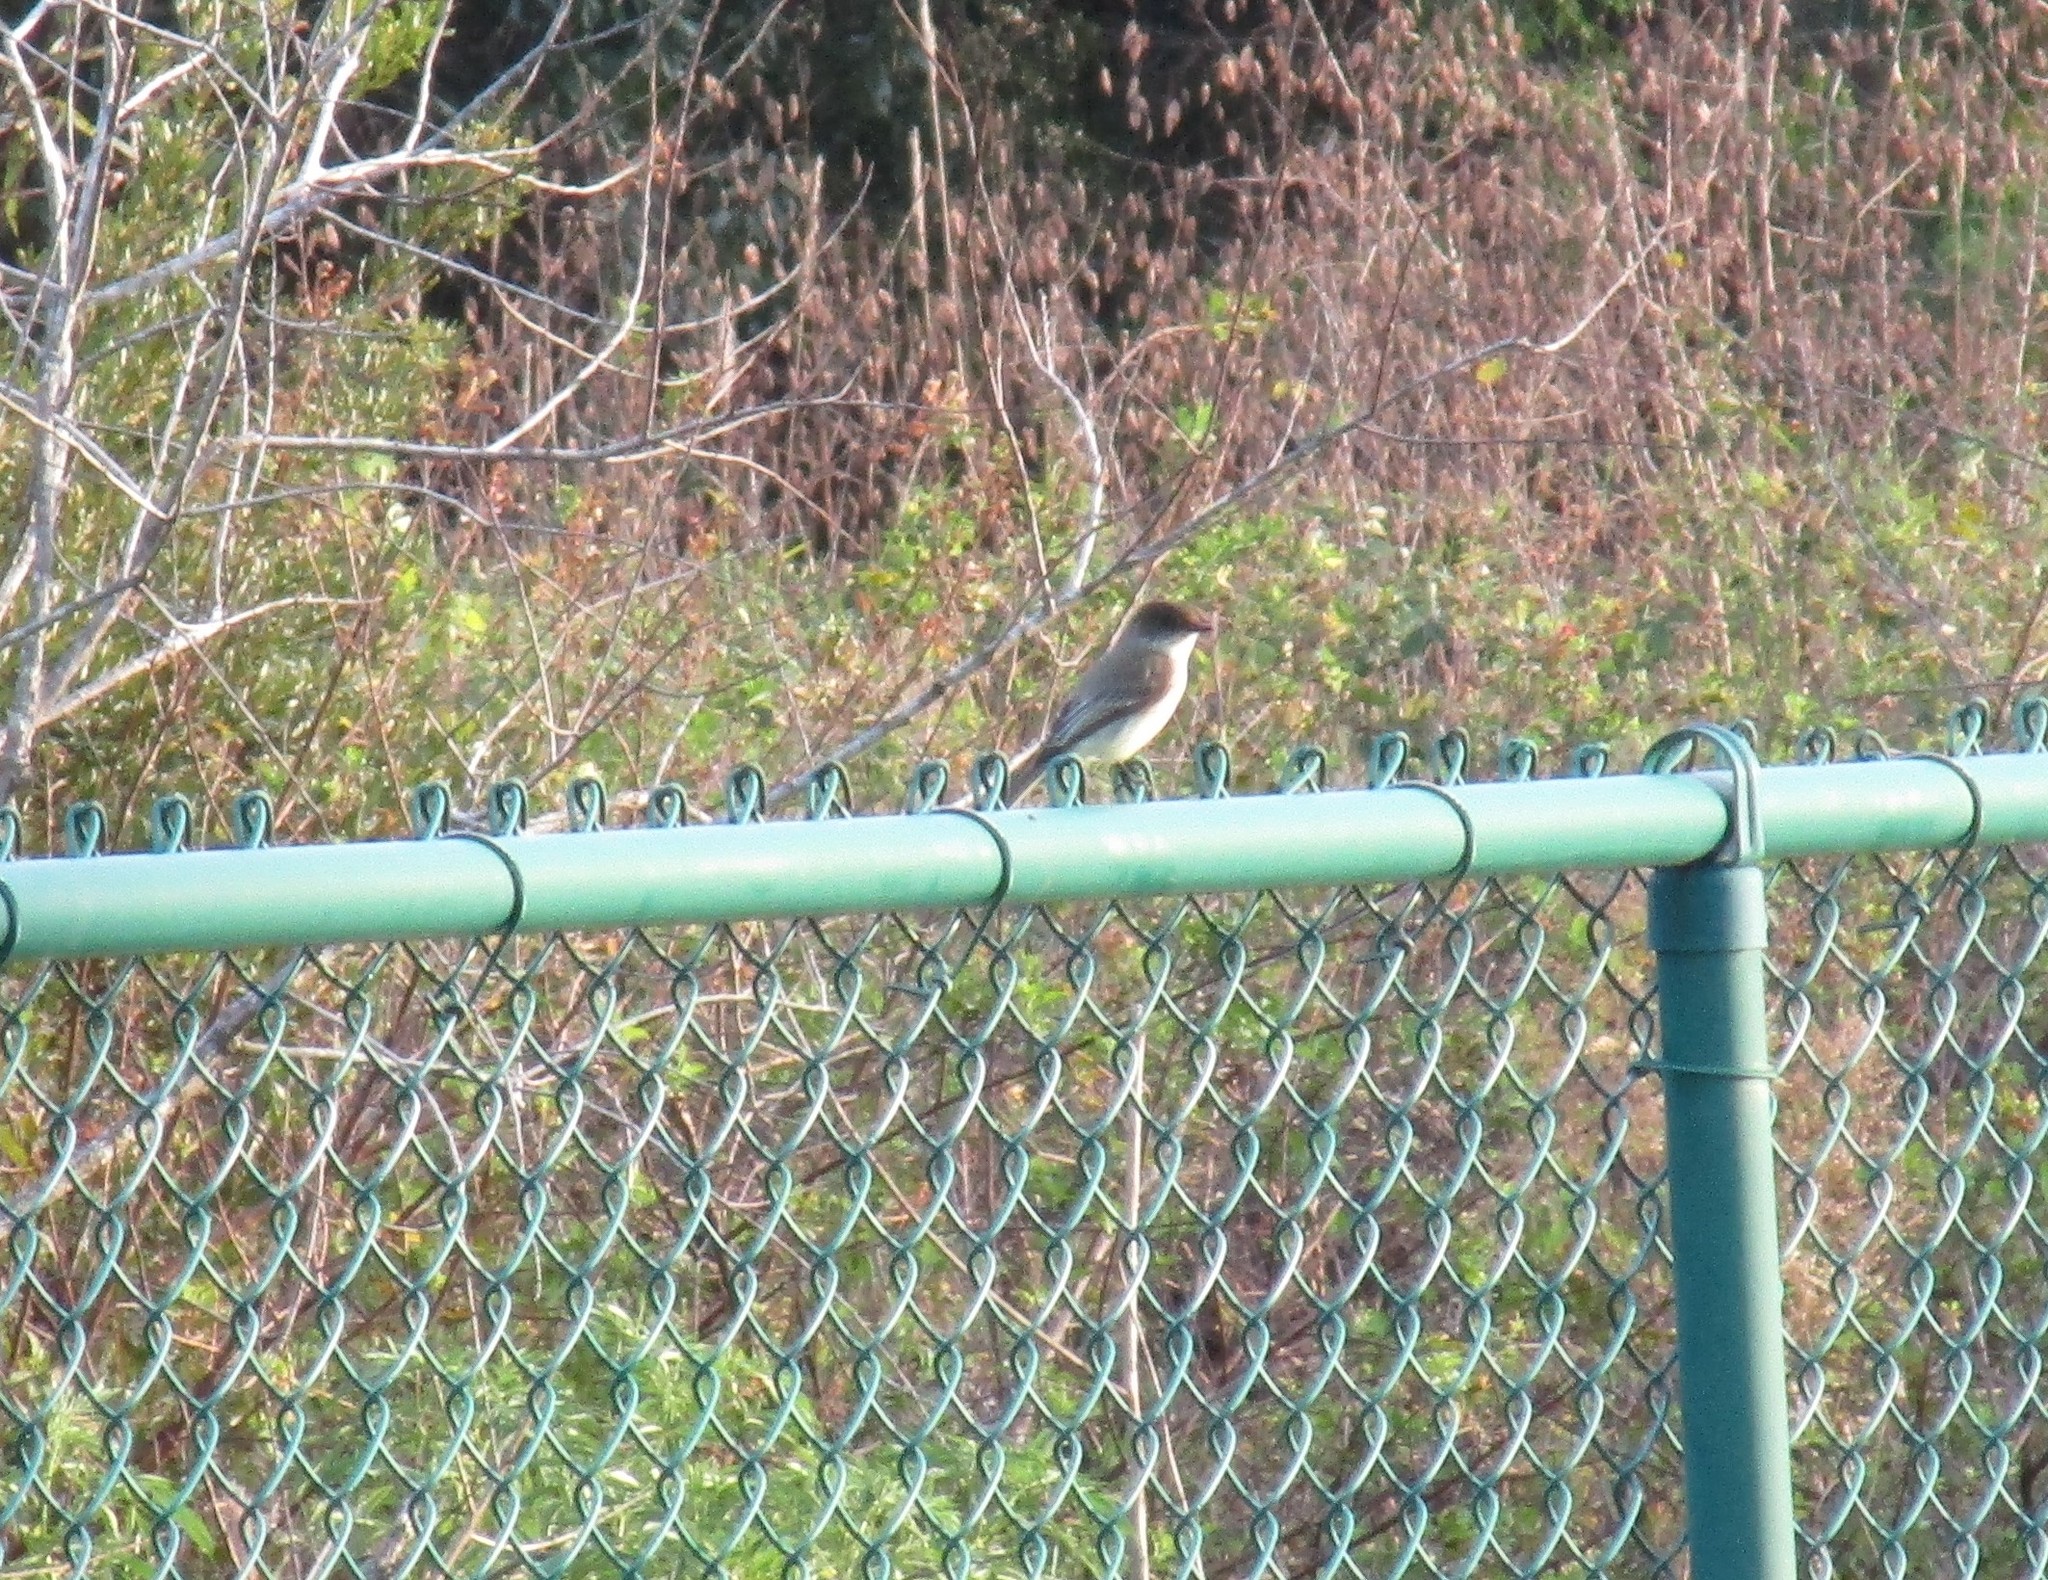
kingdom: Animalia
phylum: Chordata
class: Aves
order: Passeriformes
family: Tyrannidae
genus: Sayornis
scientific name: Sayornis phoebe
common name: Eastern phoebe
